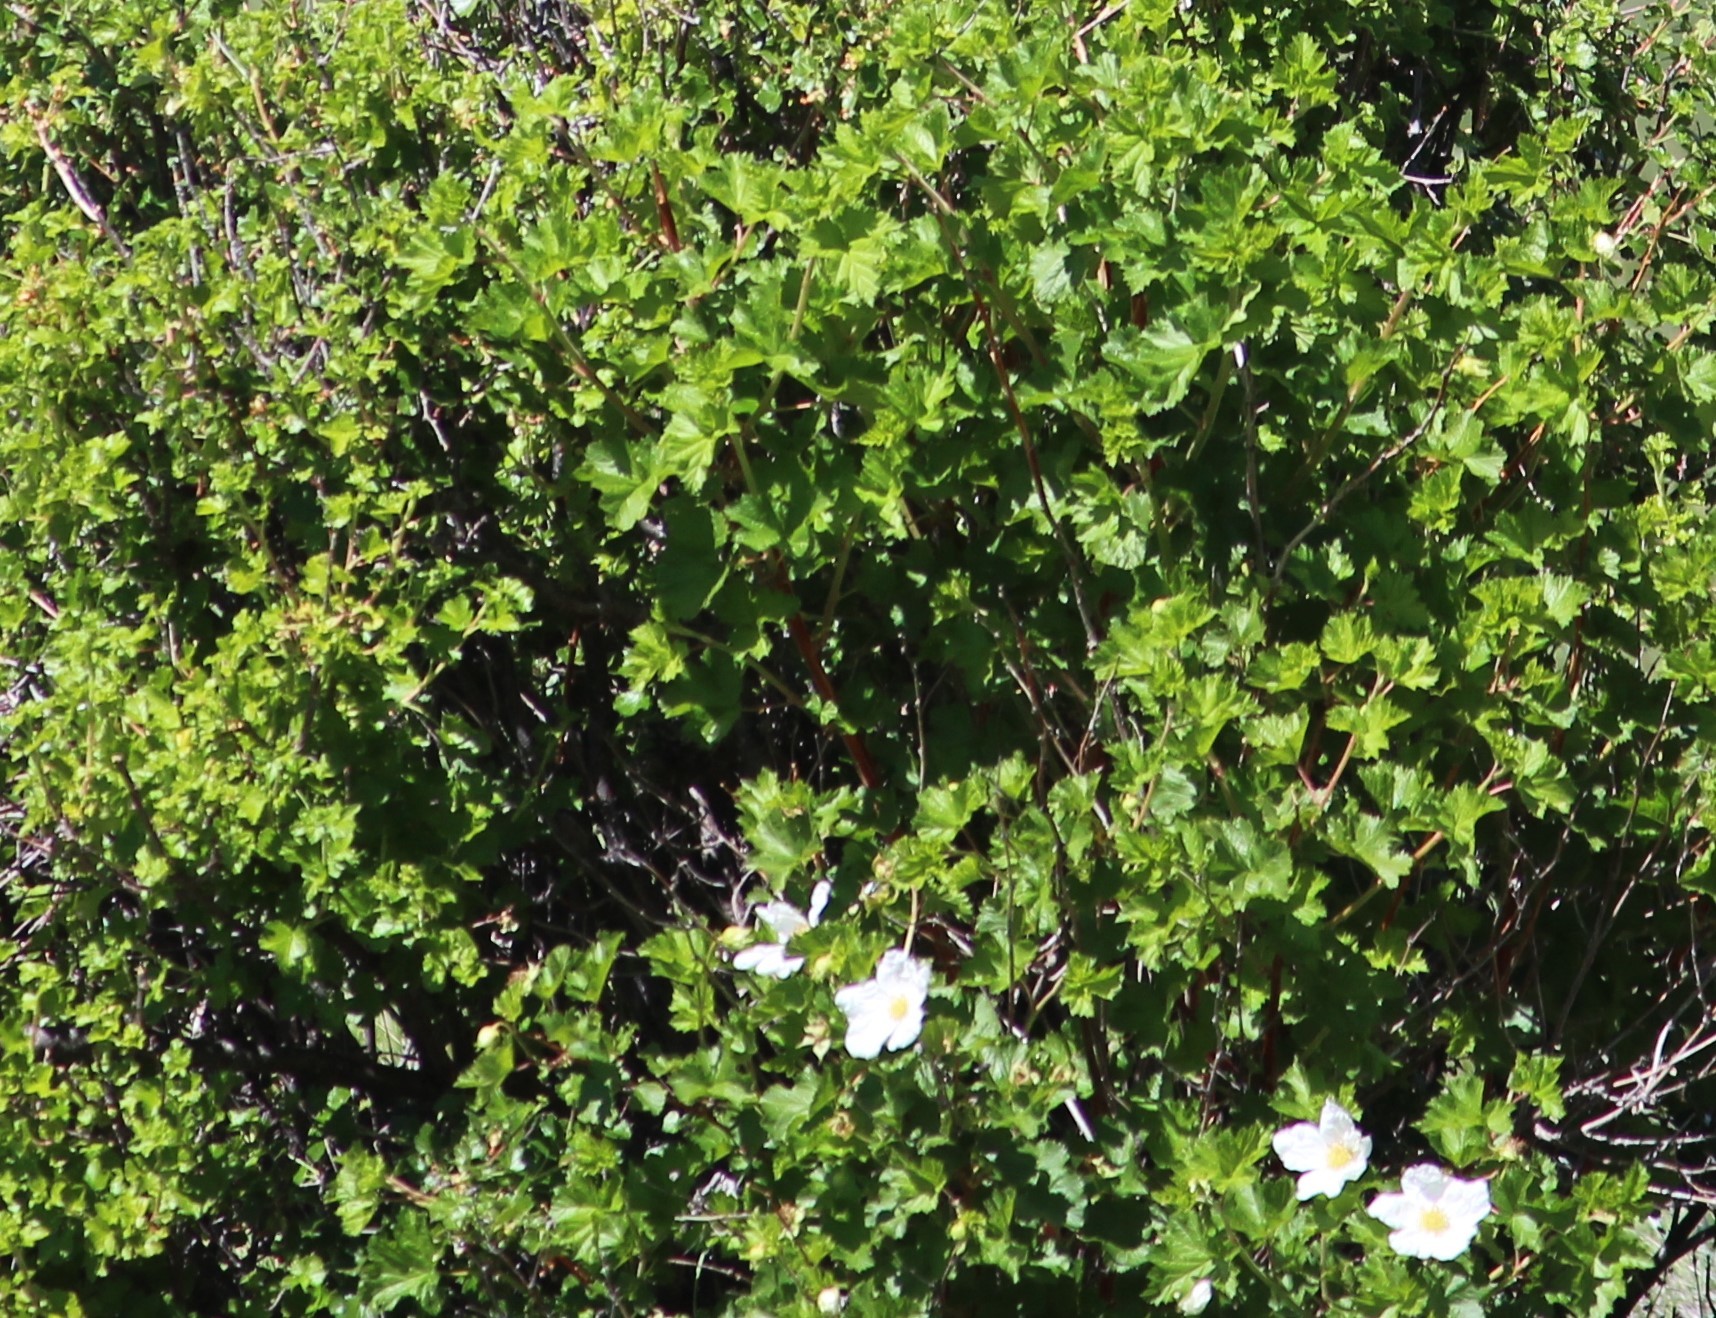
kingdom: Plantae
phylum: Tracheophyta
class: Magnoliopsida
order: Rosales
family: Rosaceae
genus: Rubus
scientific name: Rubus deliciosus
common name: Rocky mountain raspberry
